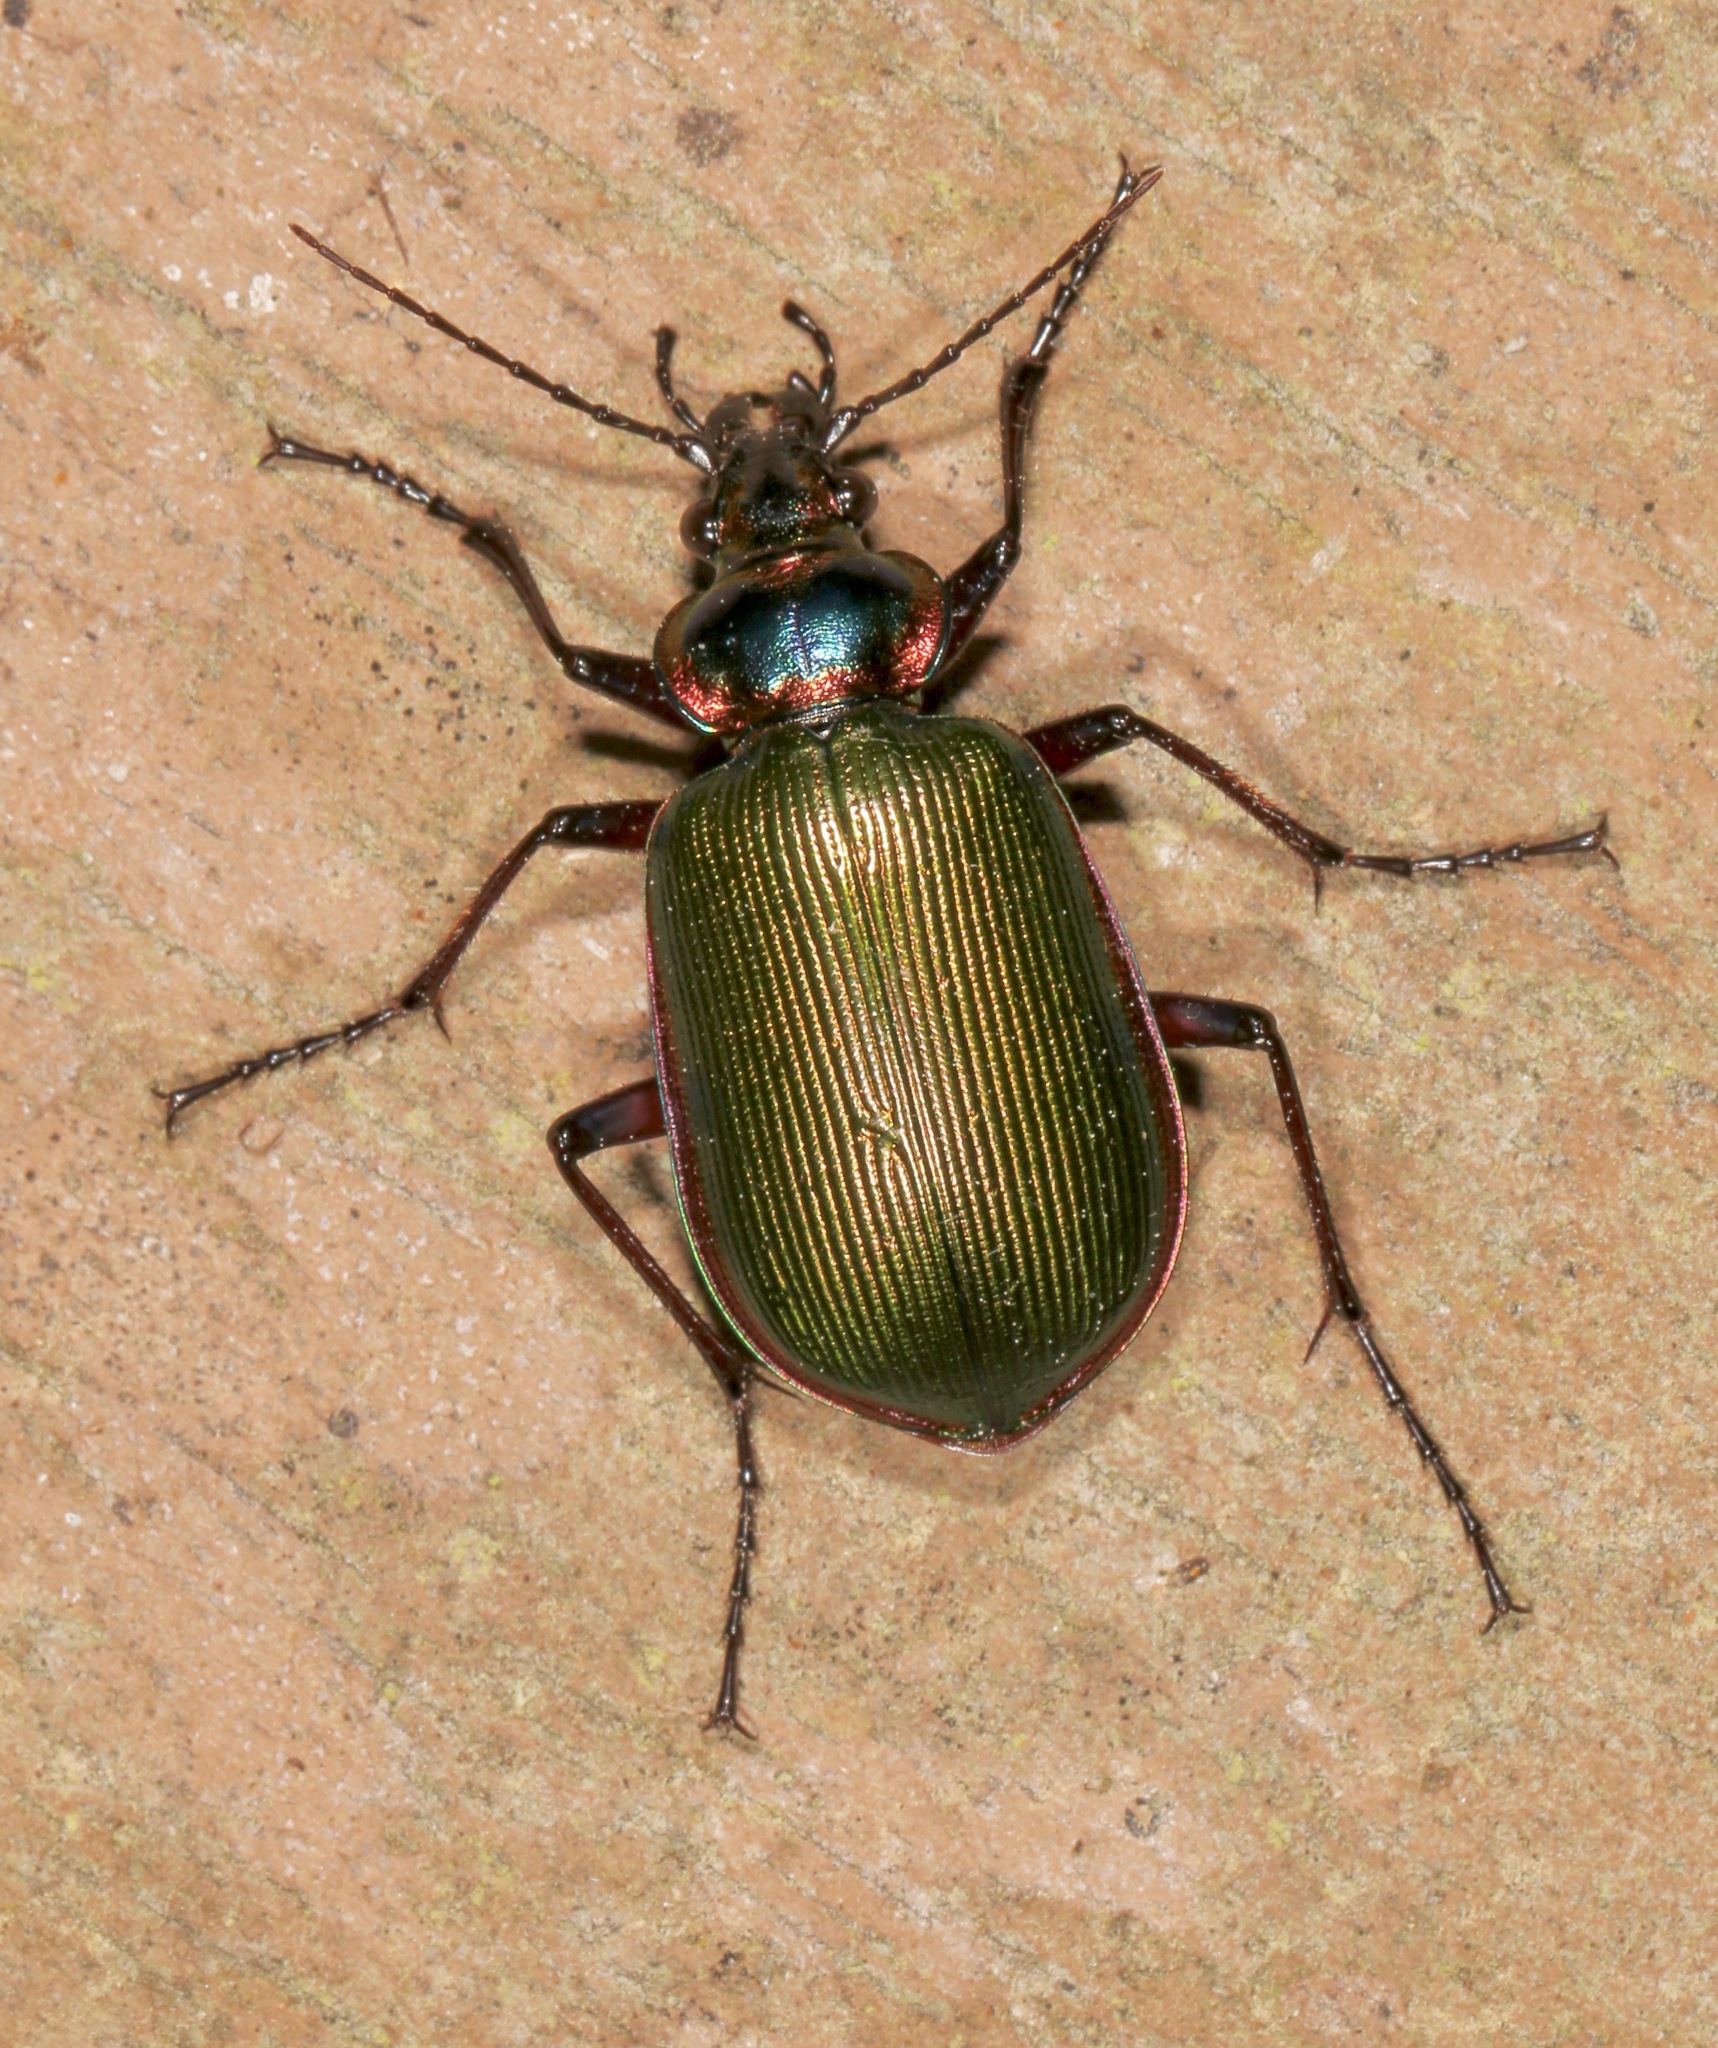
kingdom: Animalia
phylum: Arthropoda
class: Insecta
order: Coleoptera
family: Carabidae
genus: Calosoma
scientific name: Calosoma scrutator
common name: Fiery searcher beetle
